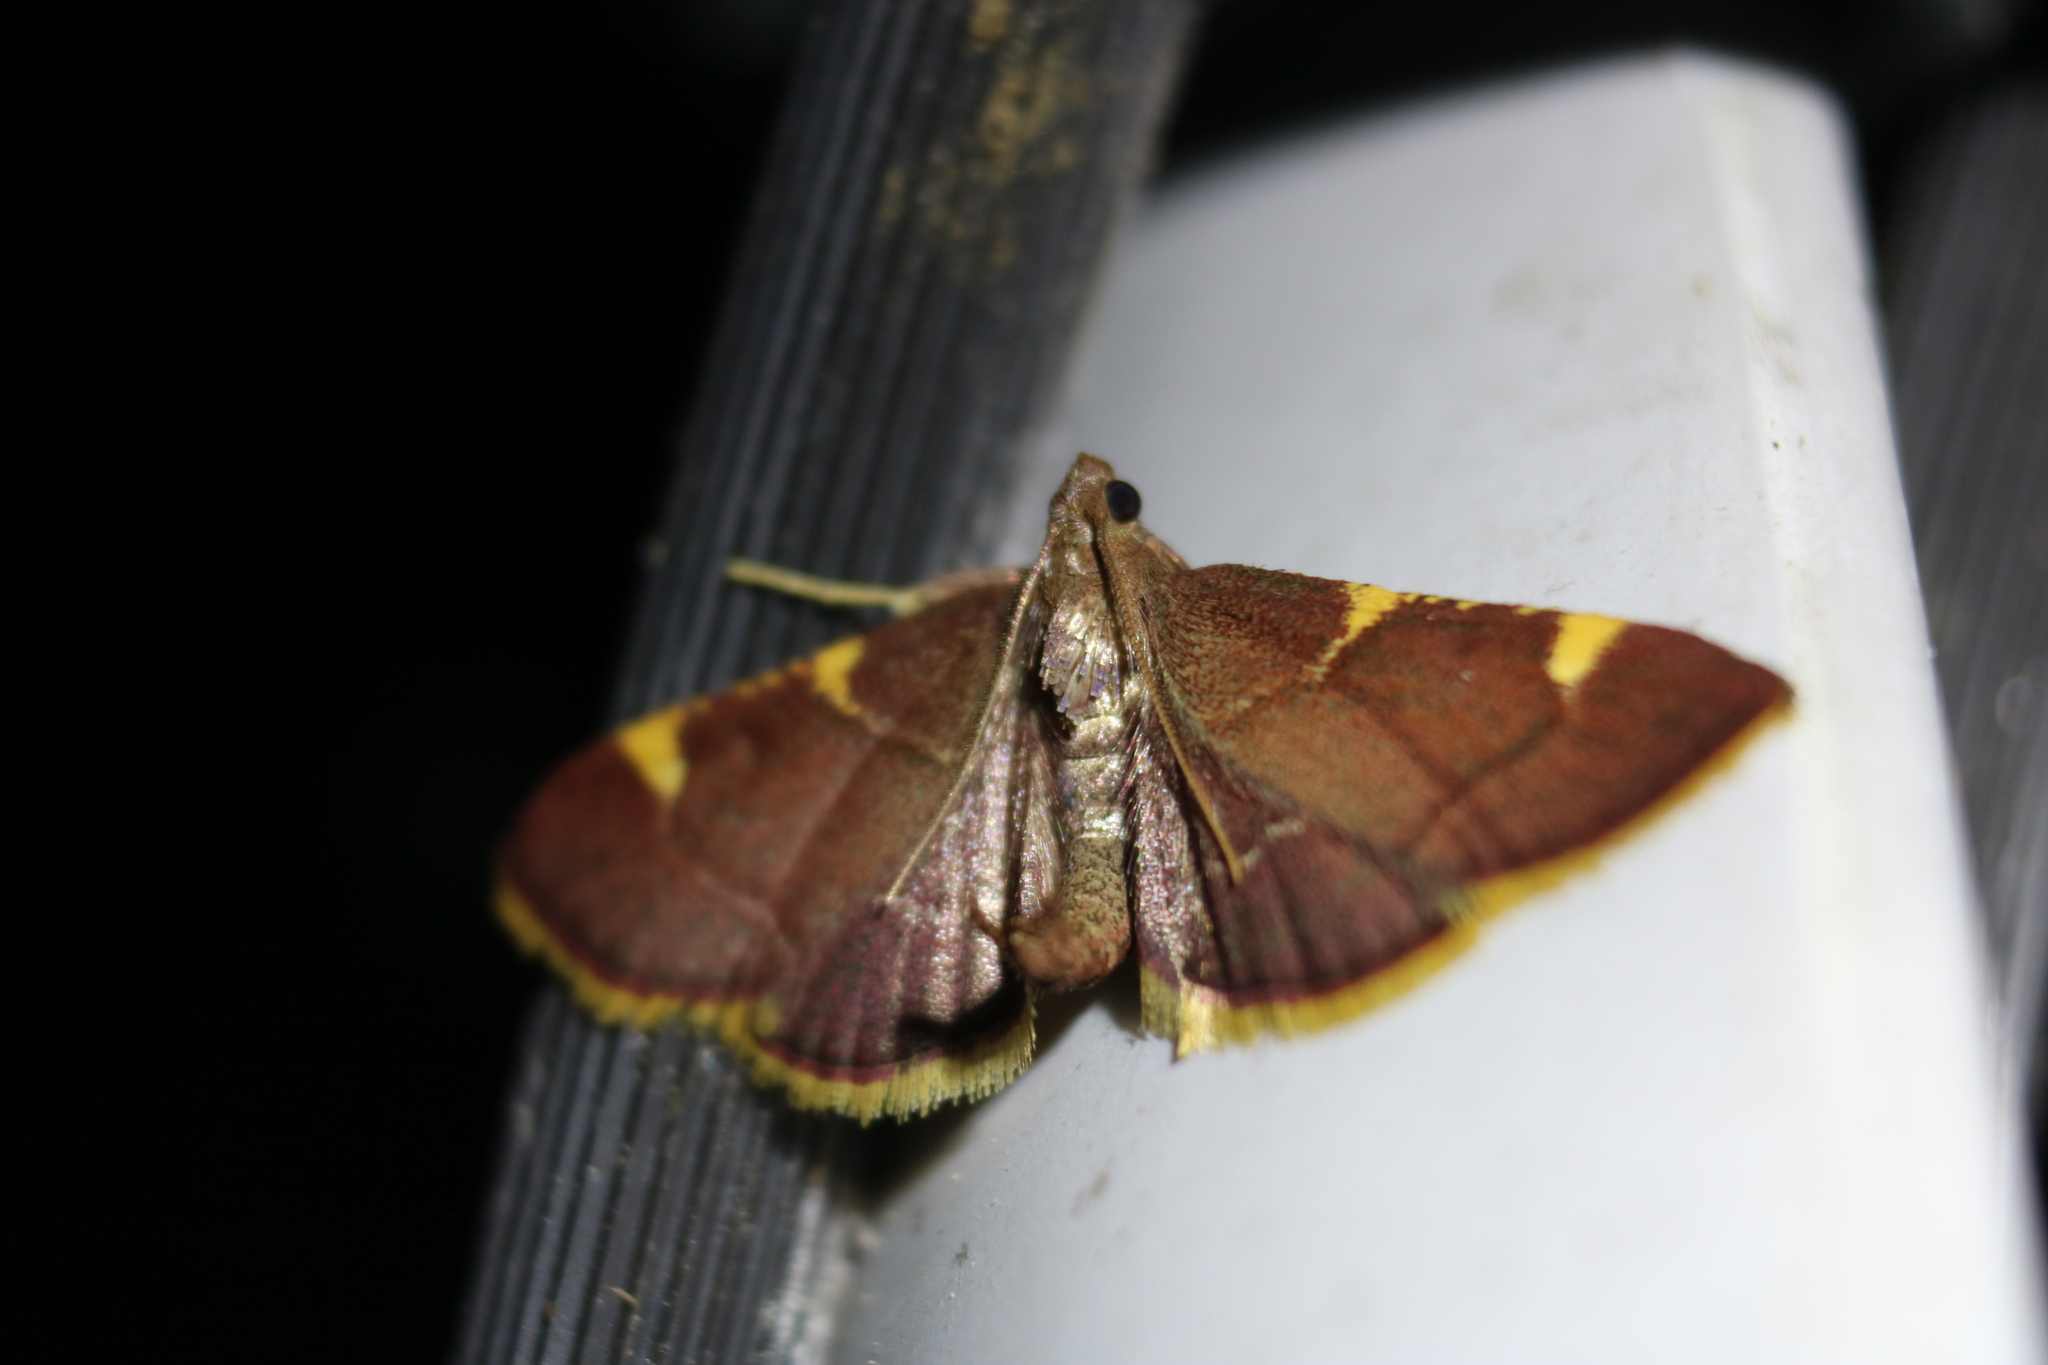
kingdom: Animalia
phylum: Arthropoda
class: Insecta
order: Lepidoptera
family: Pyralidae
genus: Hypsopygia
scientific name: Hypsopygia olinalis
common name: Yellow-fringed dolichomia moth
